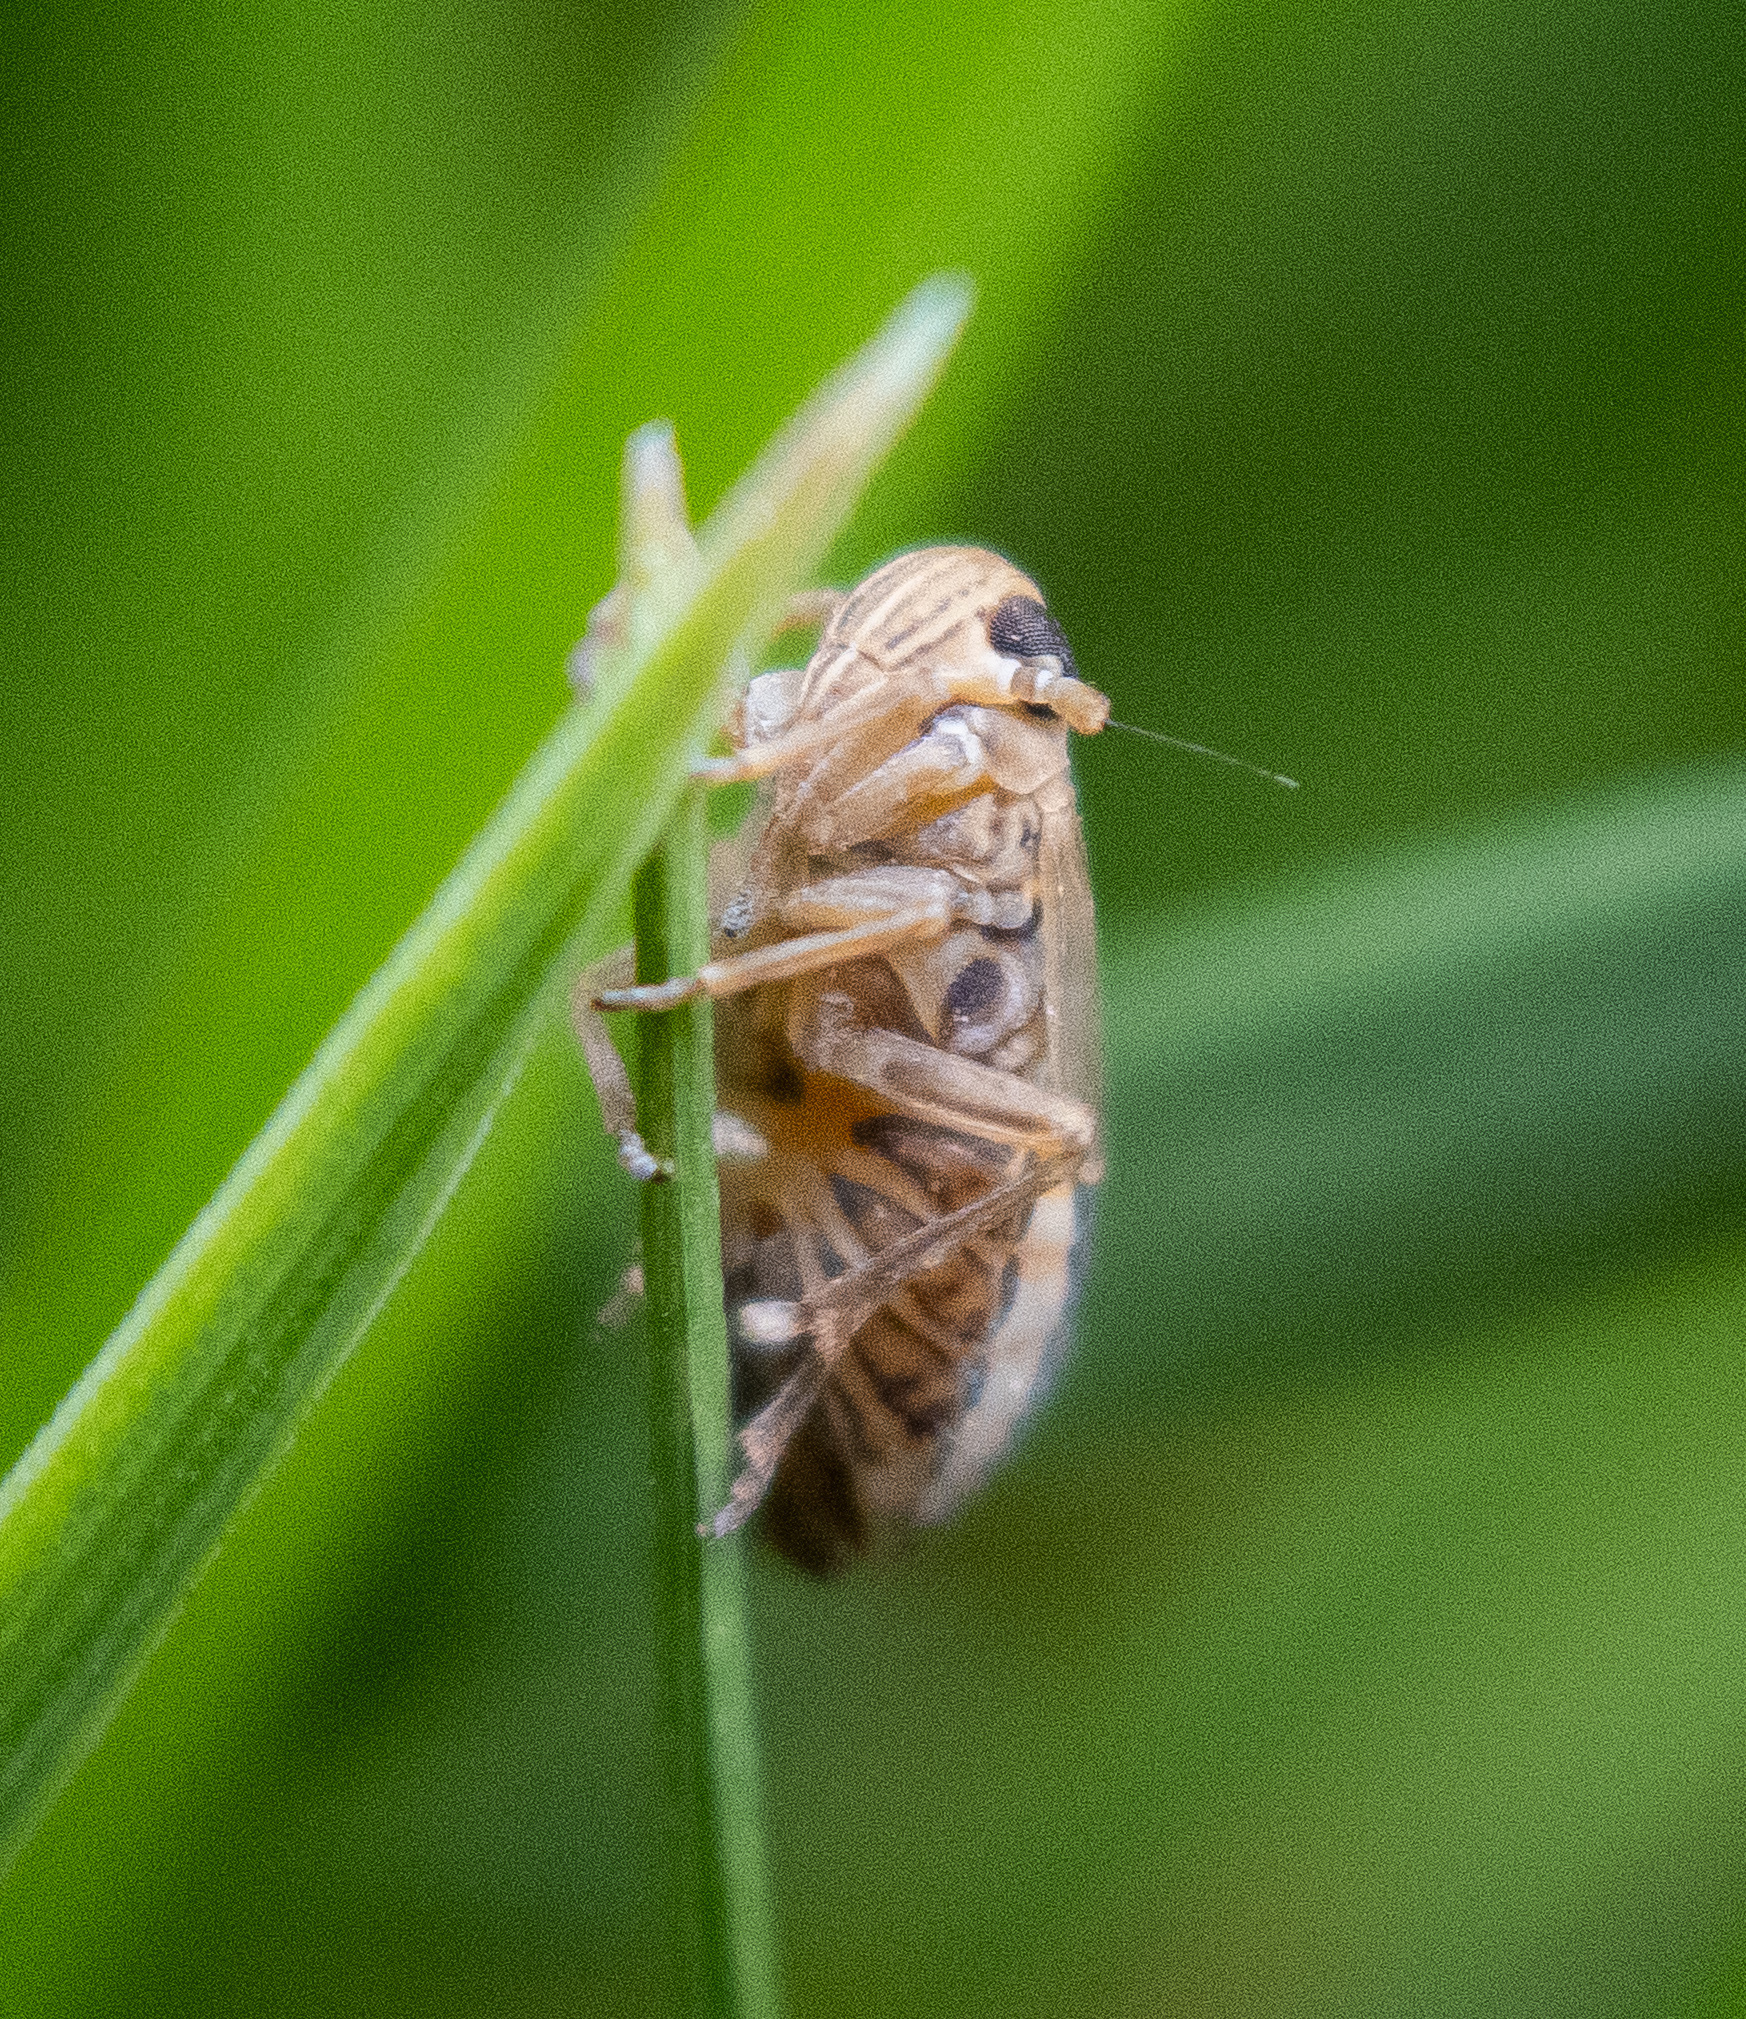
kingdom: Animalia
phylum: Arthropoda
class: Insecta
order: Hemiptera
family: Delphacidae
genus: Kosswigianella
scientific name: Kosswigianella lutulenta
